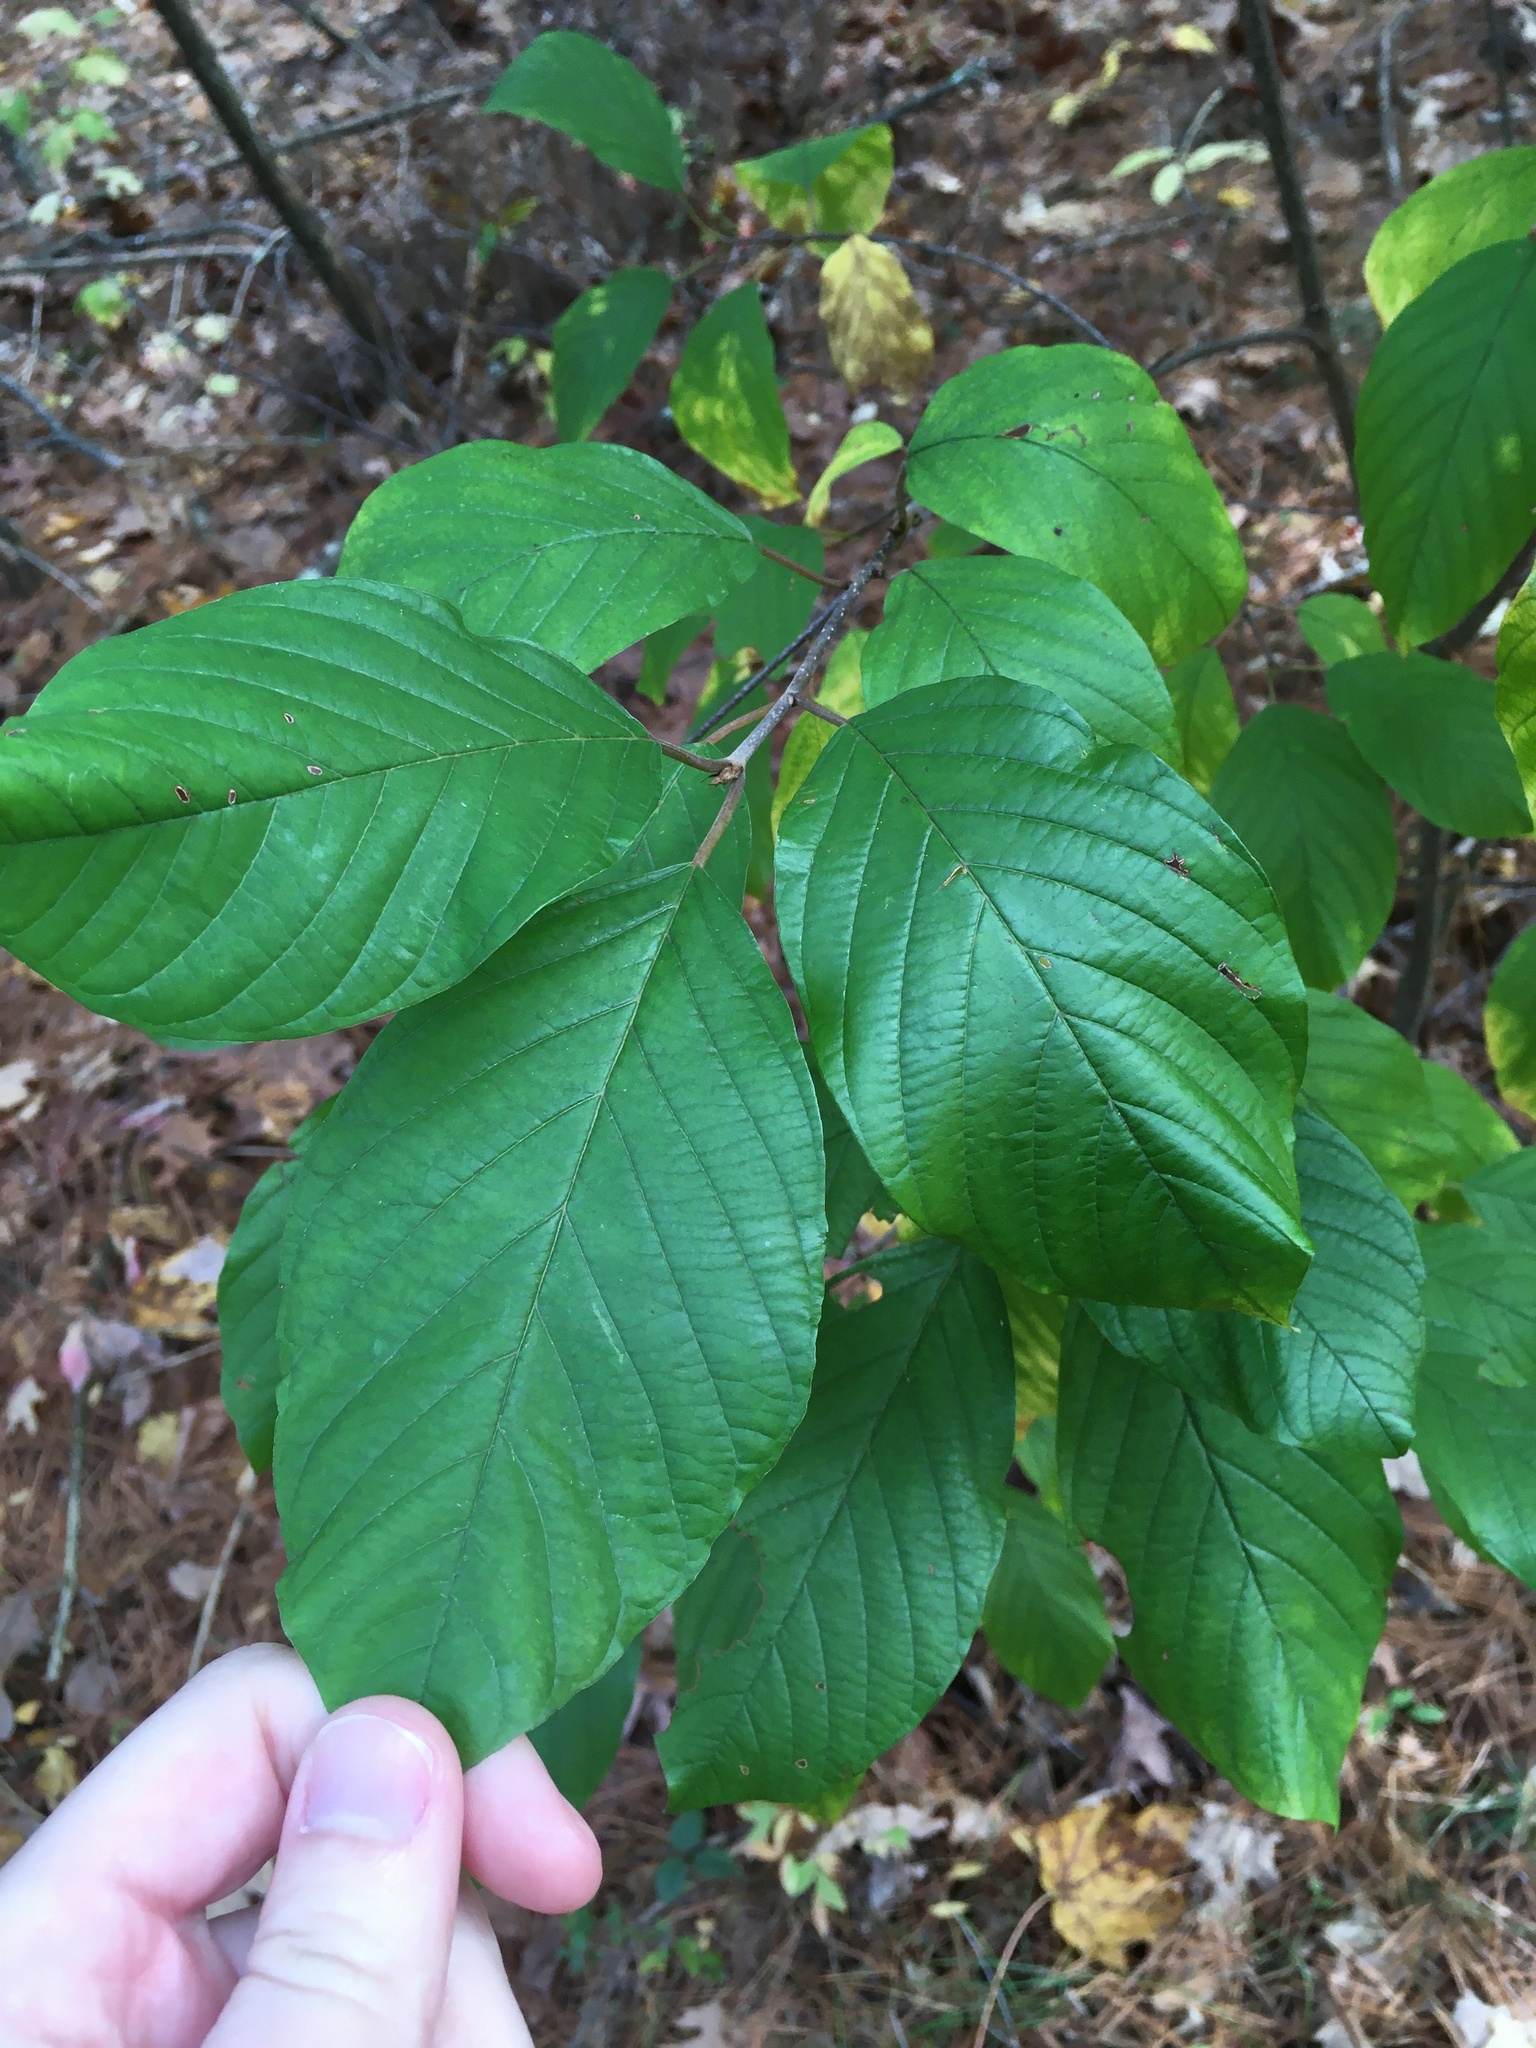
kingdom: Plantae
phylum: Tracheophyta
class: Magnoliopsida
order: Rosales
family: Rhamnaceae
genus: Frangula
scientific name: Frangula alnus
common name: Alder buckthorn
